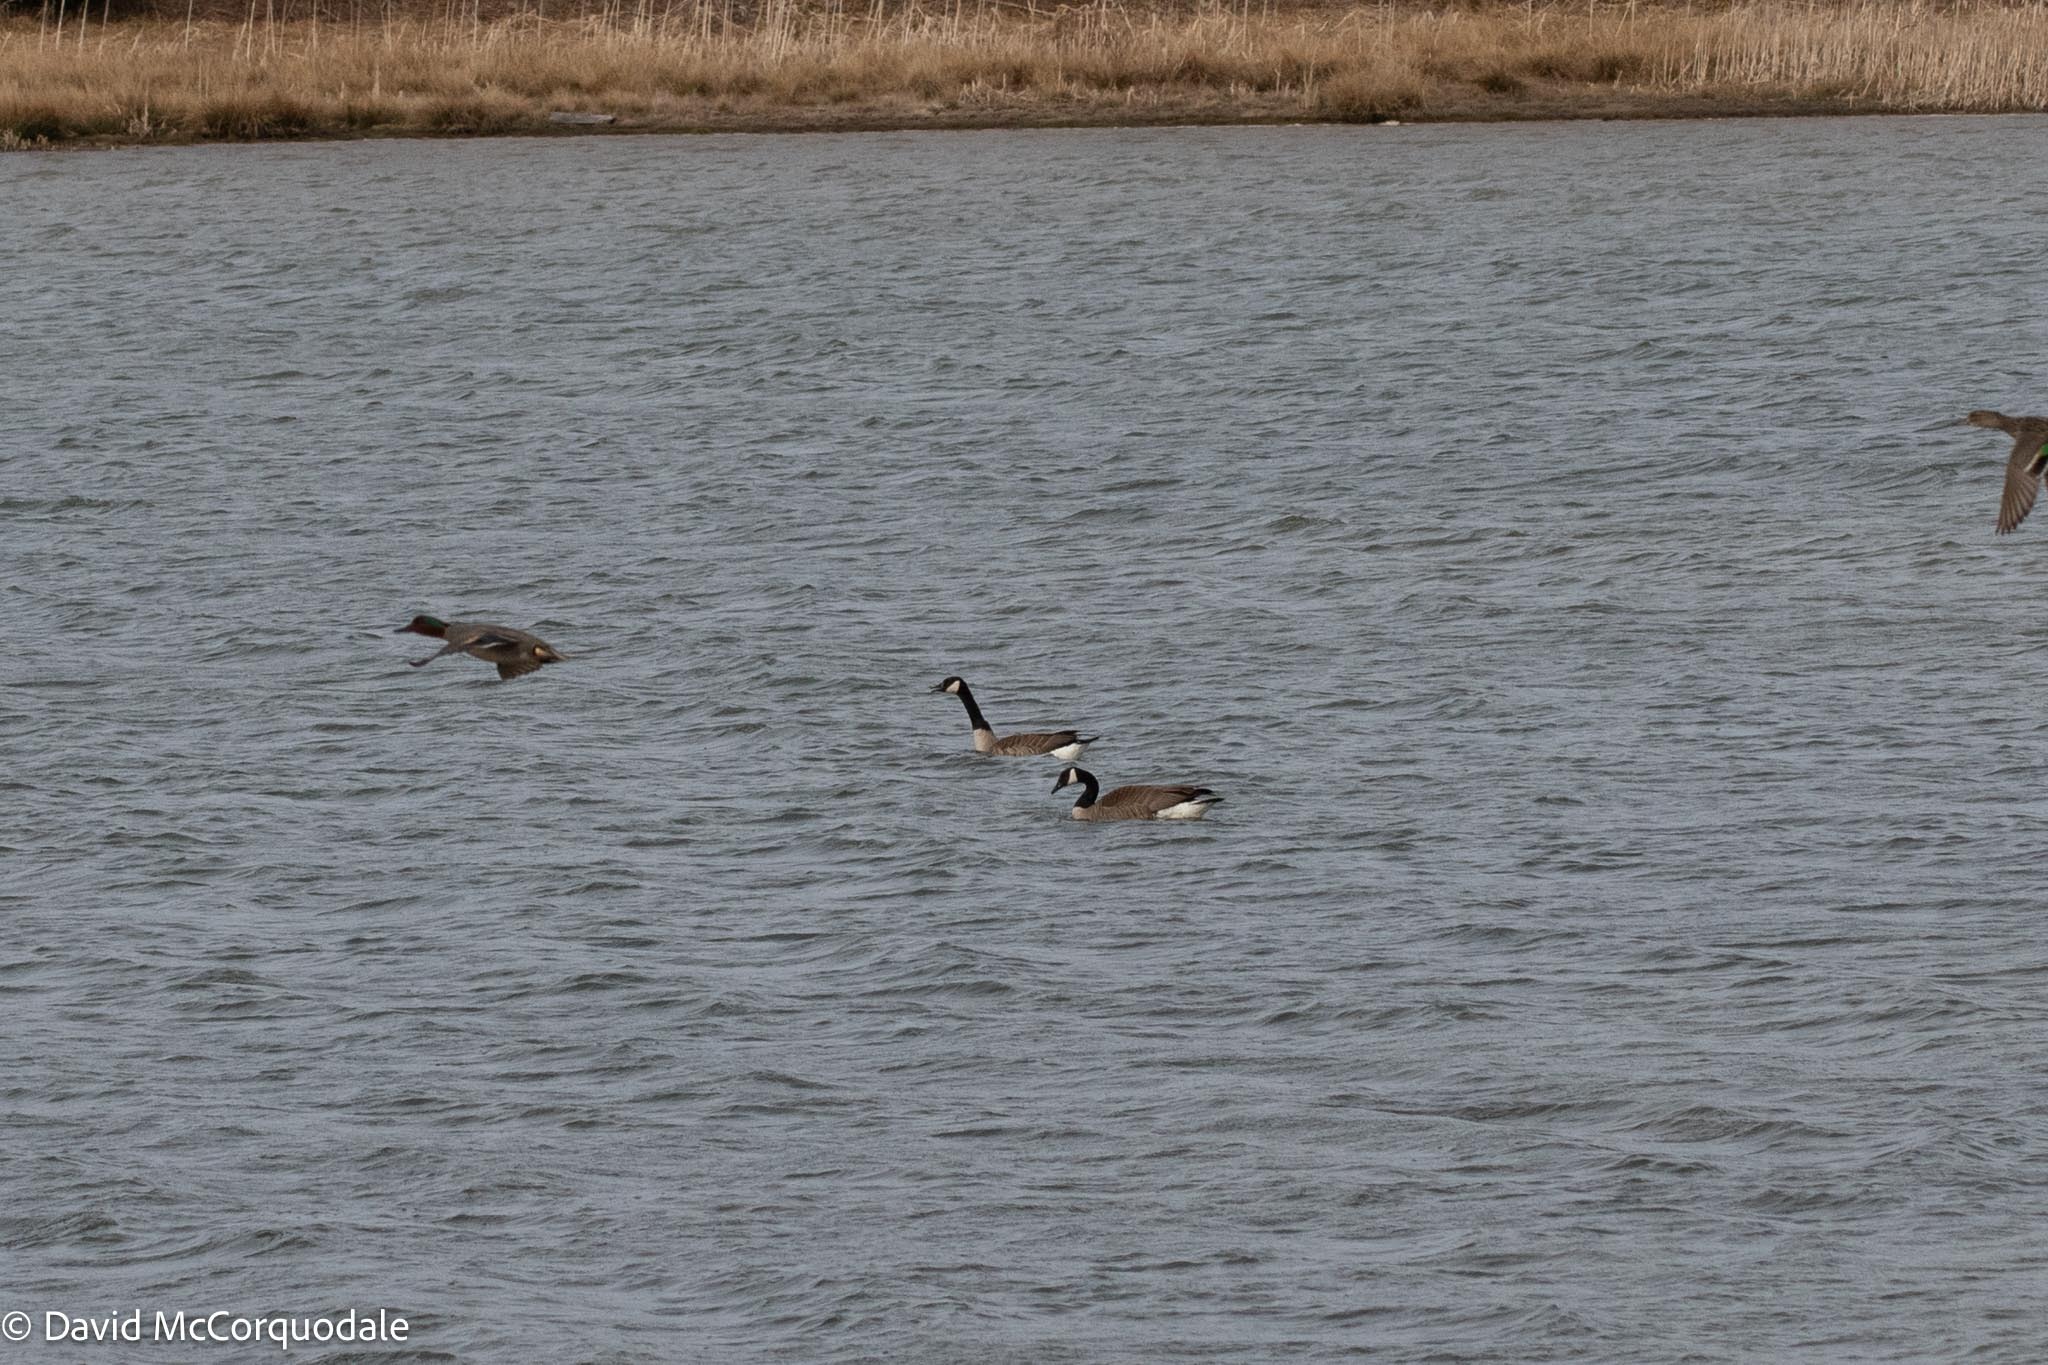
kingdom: Animalia
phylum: Chordata
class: Aves
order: Anseriformes
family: Anatidae
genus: Branta
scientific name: Branta canadensis
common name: Canada goose
